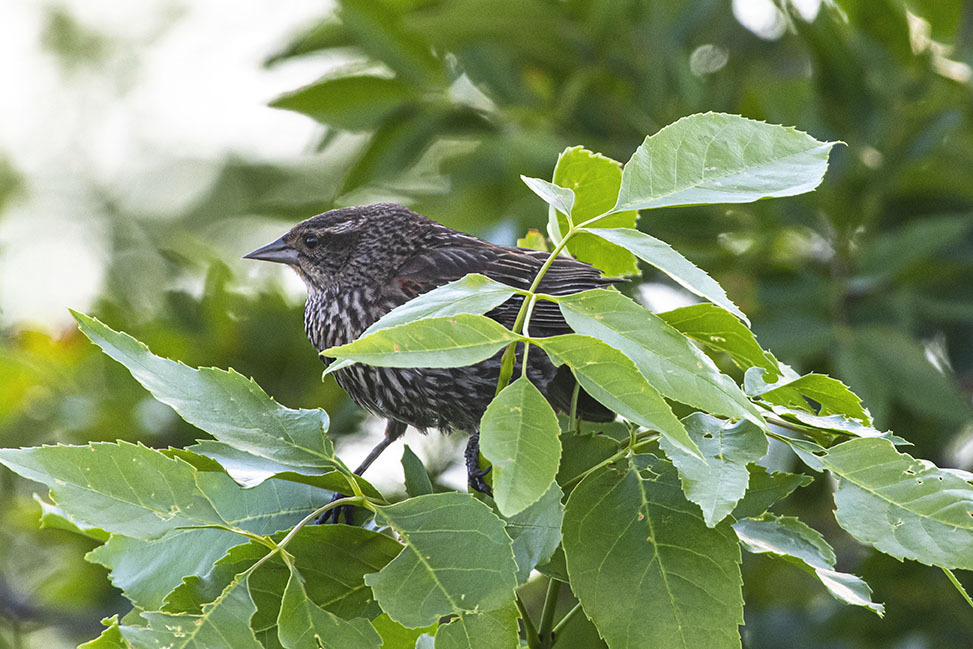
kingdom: Animalia
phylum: Chordata
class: Aves
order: Passeriformes
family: Icteridae
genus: Agelaius
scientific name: Agelaius phoeniceus
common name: Red-winged blackbird
